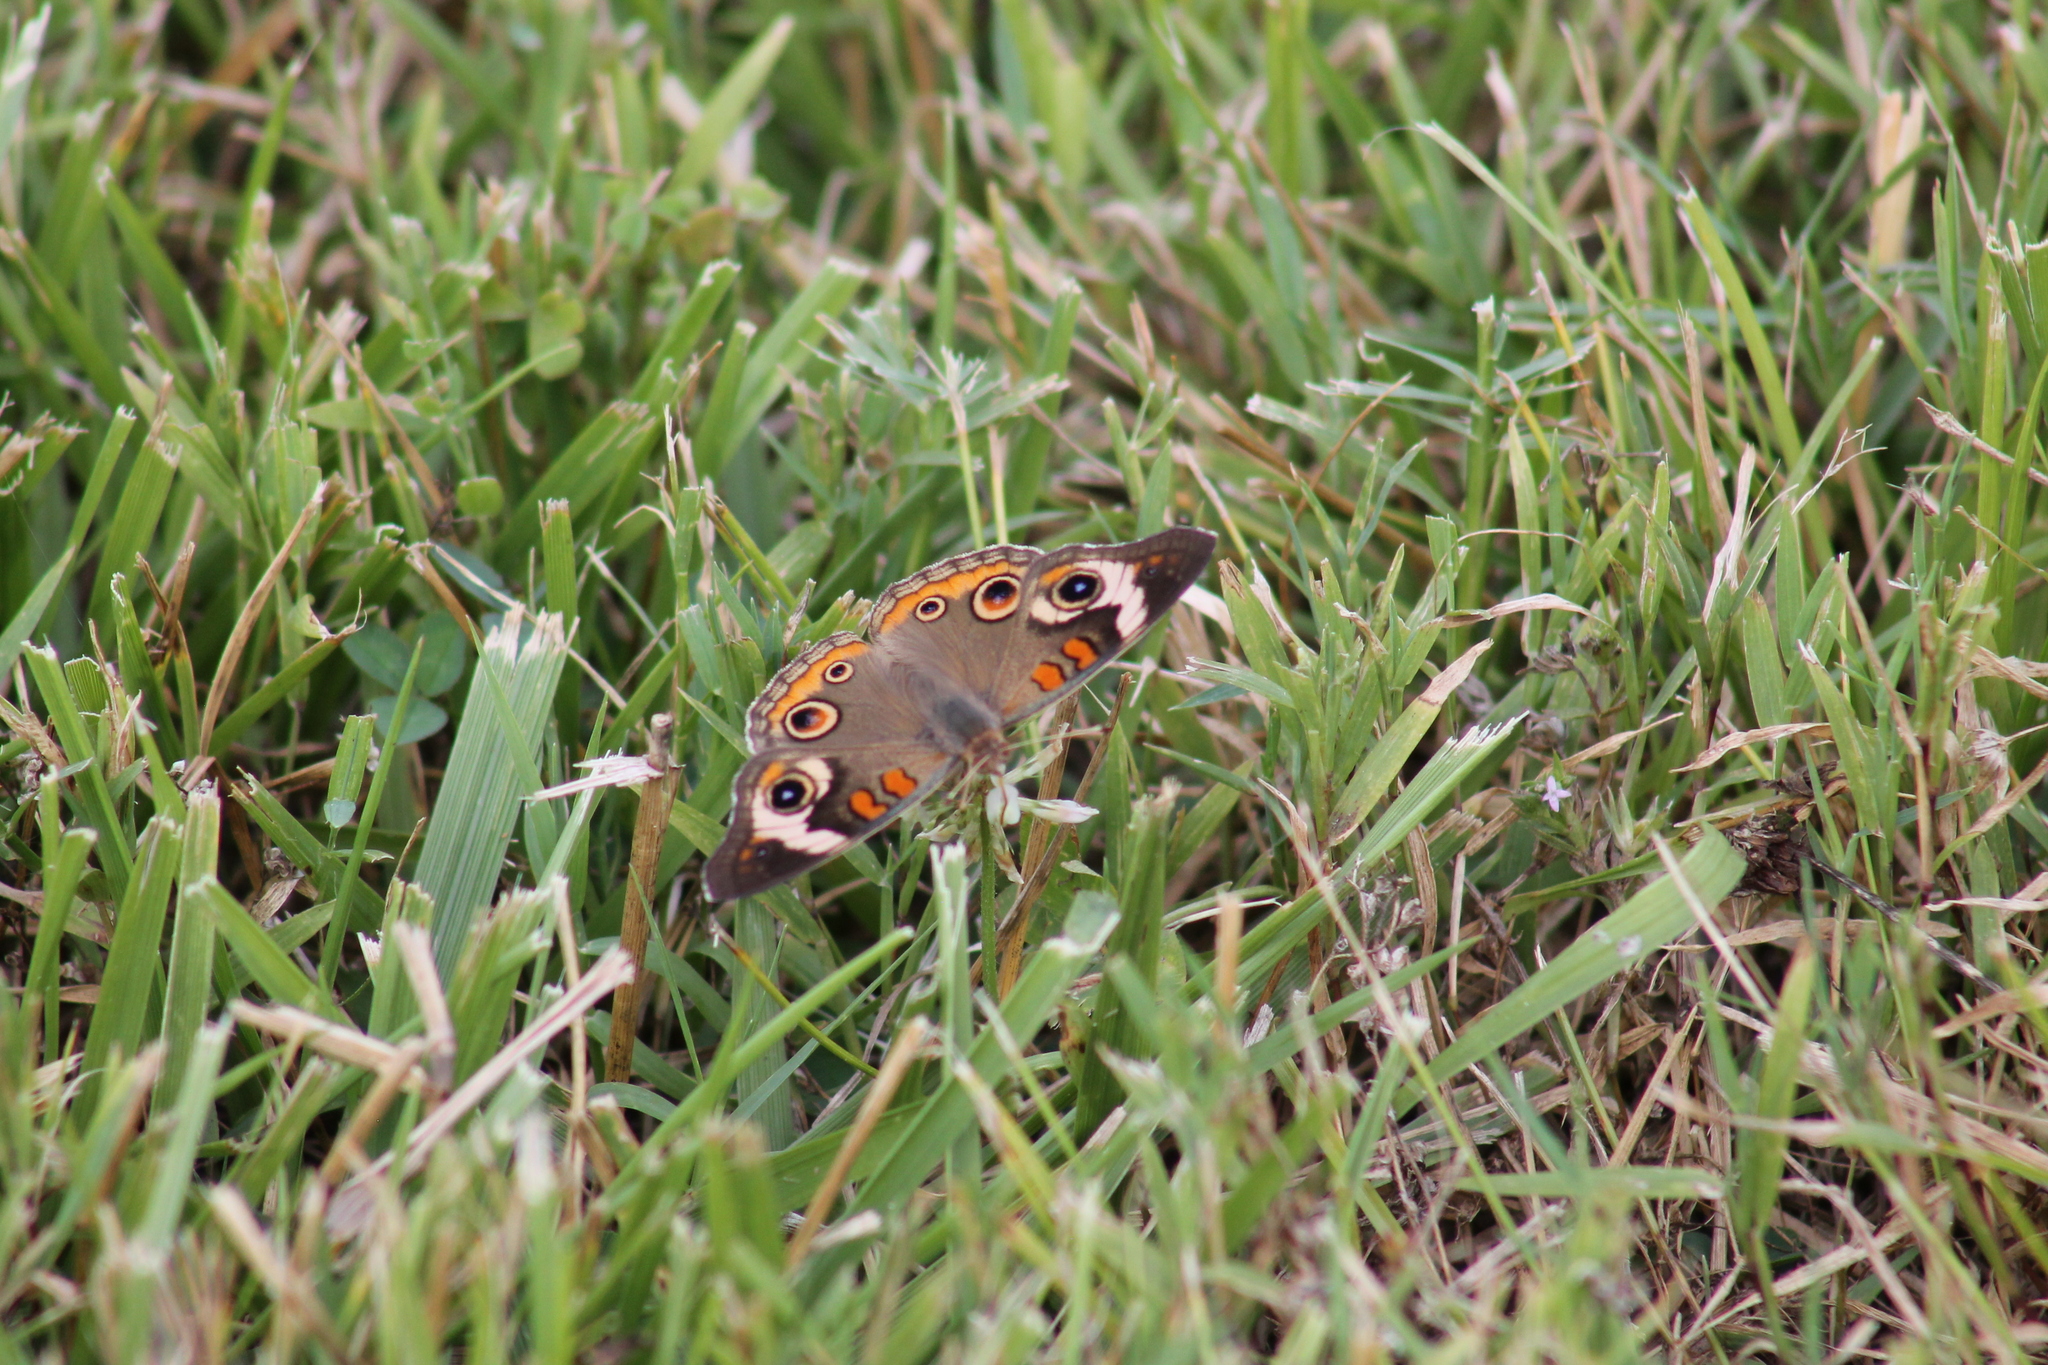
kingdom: Animalia
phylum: Arthropoda
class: Insecta
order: Lepidoptera
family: Nymphalidae
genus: Junonia
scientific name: Junonia coenia
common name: Common buckeye
